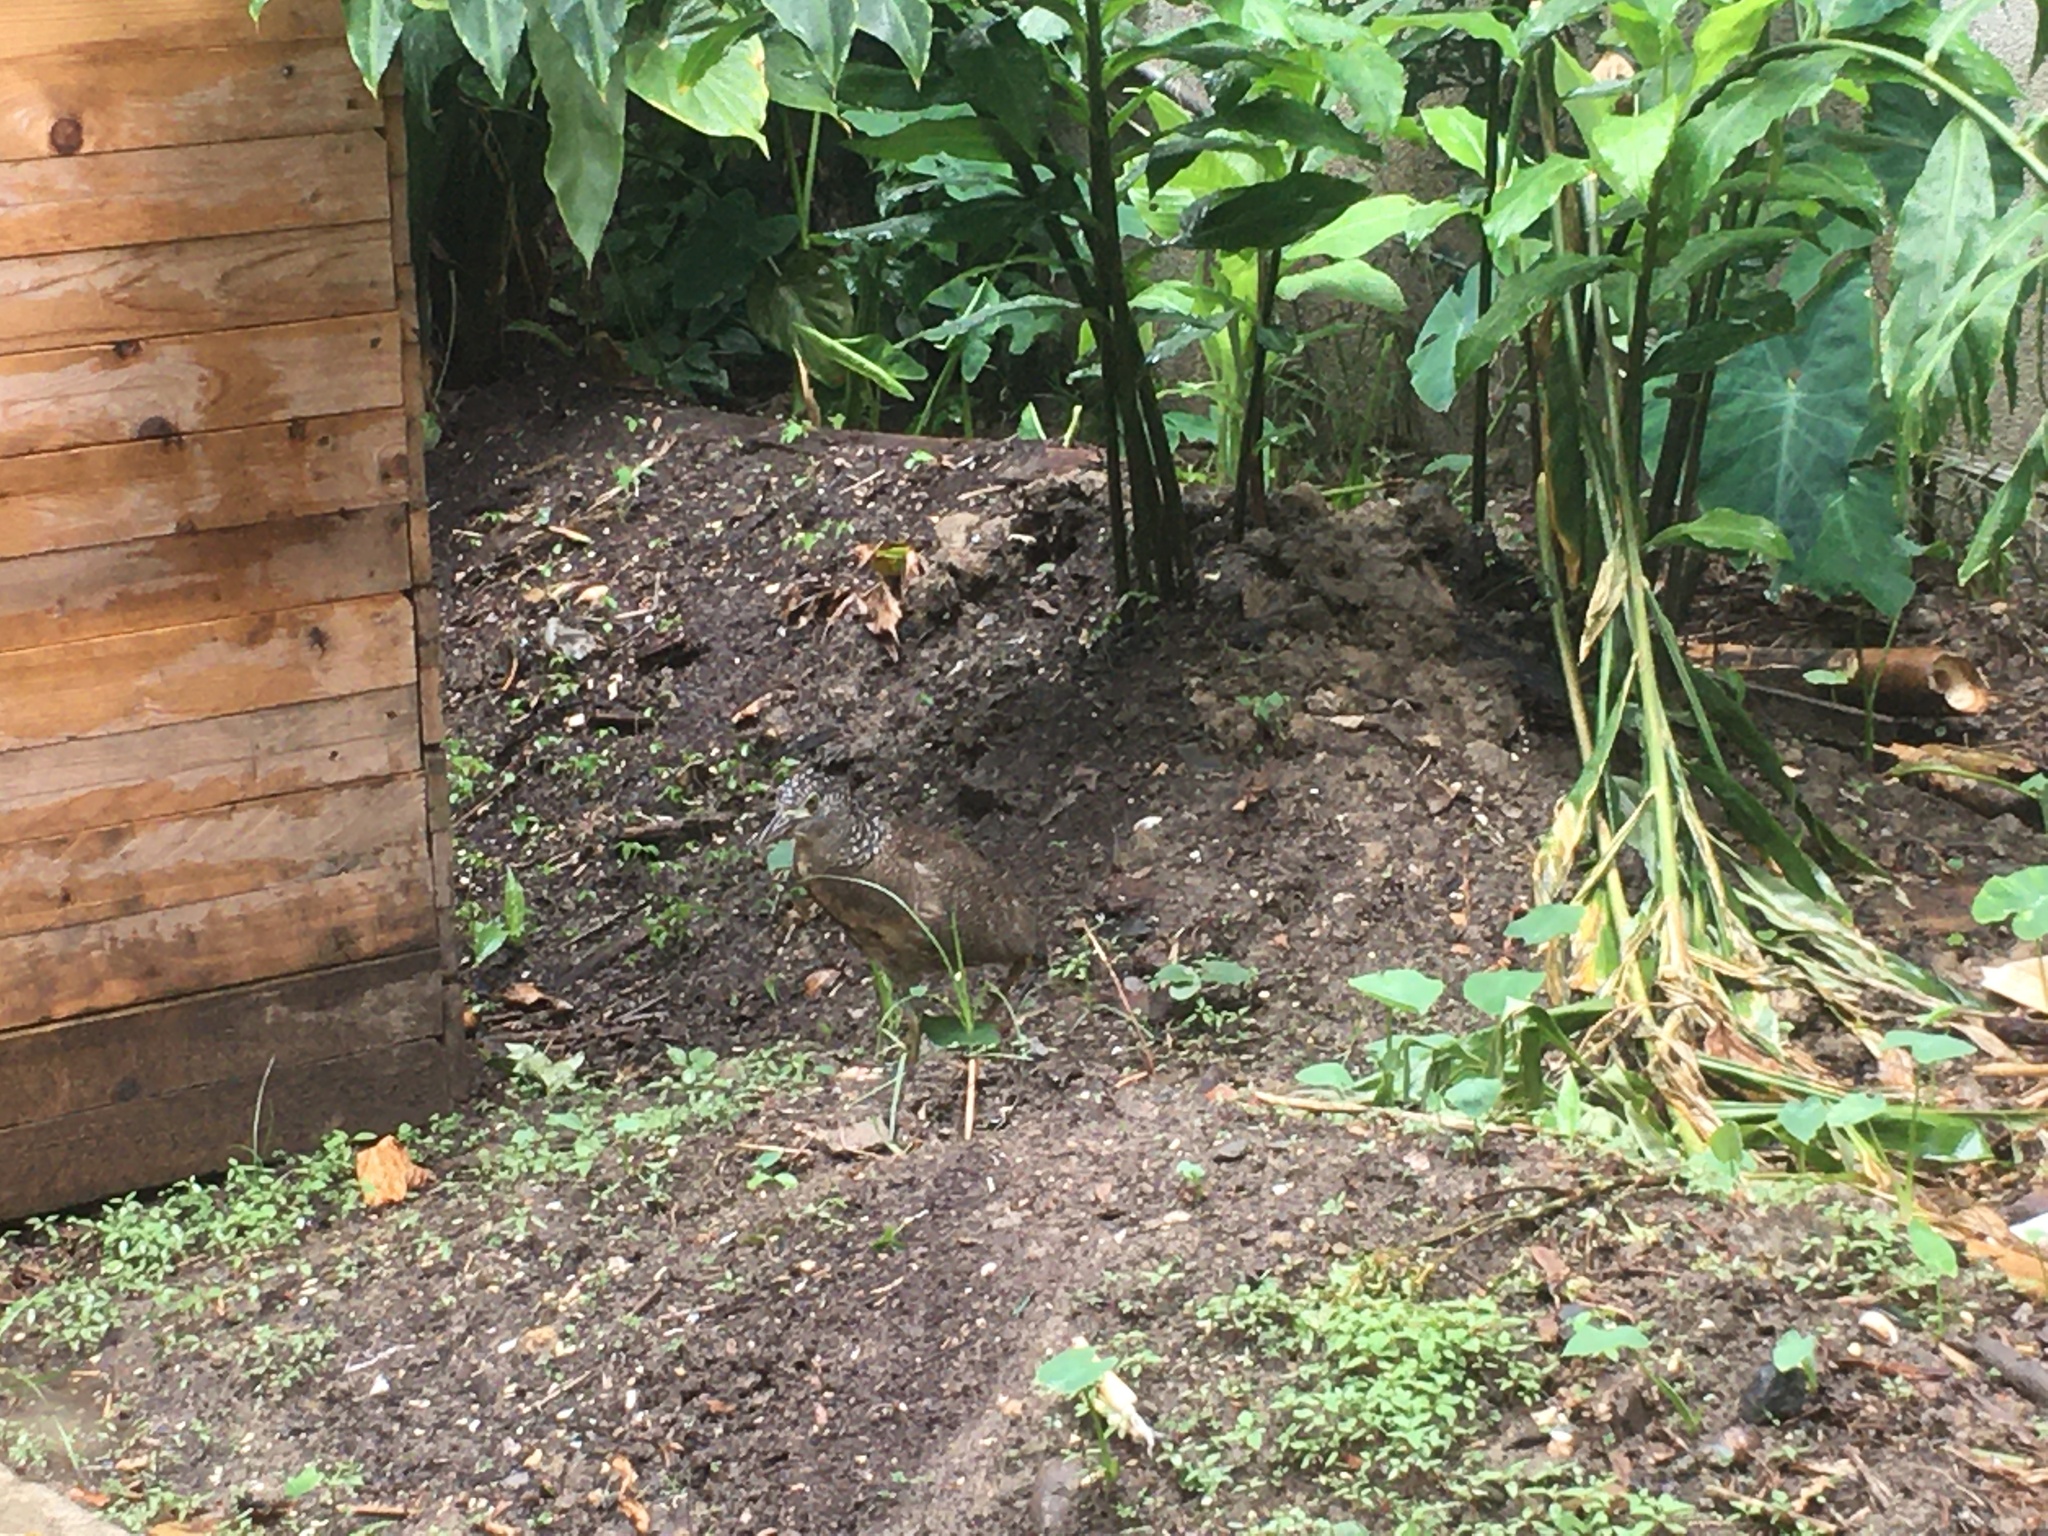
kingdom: Animalia
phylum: Chordata
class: Aves
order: Pelecaniformes
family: Ardeidae
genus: Gorsachius
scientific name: Gorsachius melanolophus
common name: Malayan night heron
